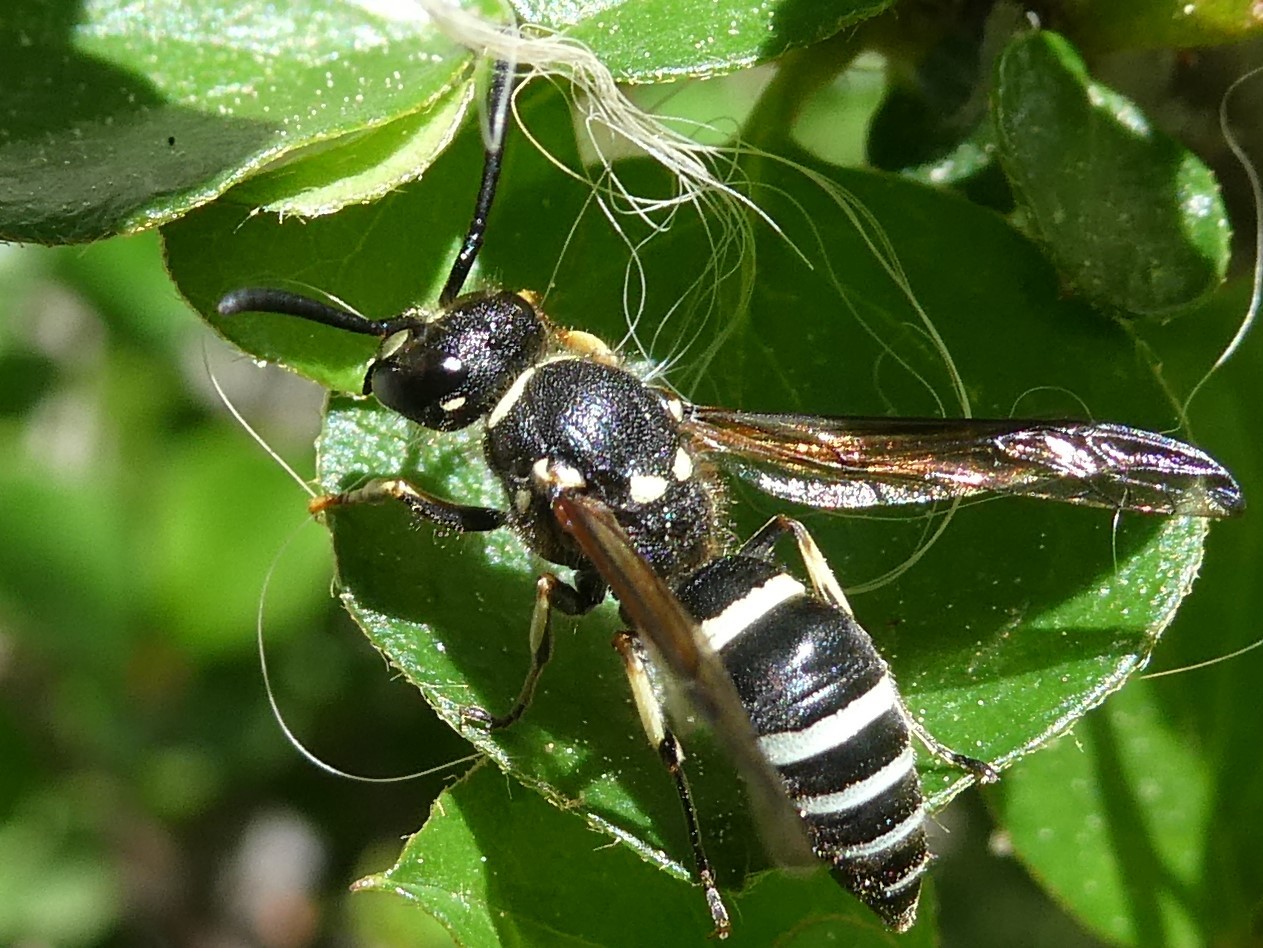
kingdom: Animalia
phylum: Arthropoda
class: Insecta
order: Hymenoptera
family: Vespidae
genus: Ancistrocerus
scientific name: Ancistrocerus
